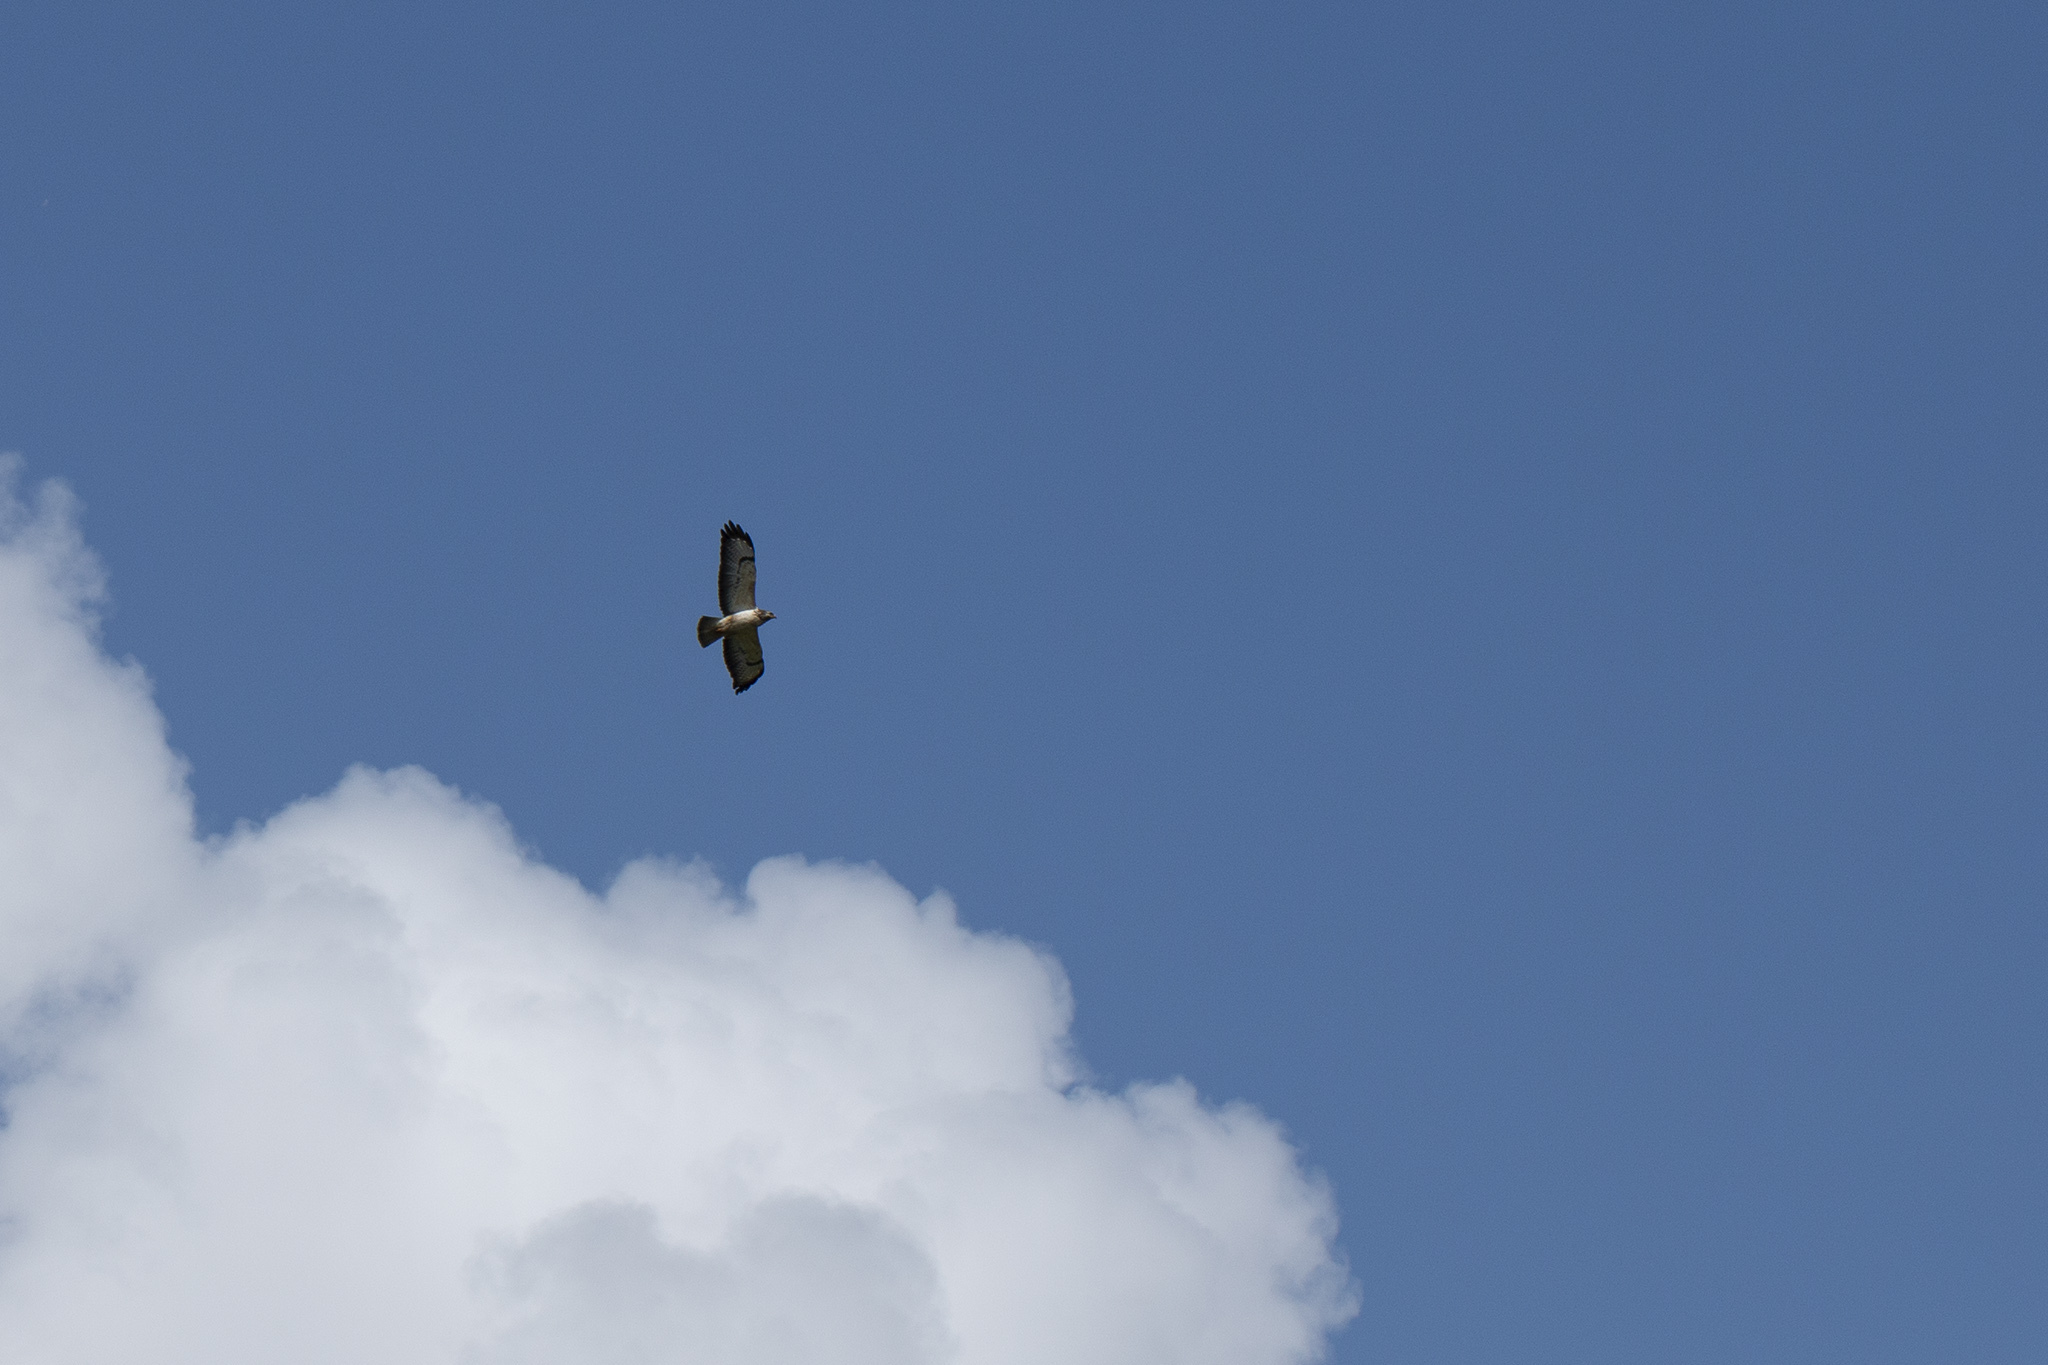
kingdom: Animalia
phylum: Chordata
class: Aves
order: Accipitriformes
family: Accipitridae
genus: Buteo
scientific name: Buteo buteo
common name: Common buzzard
